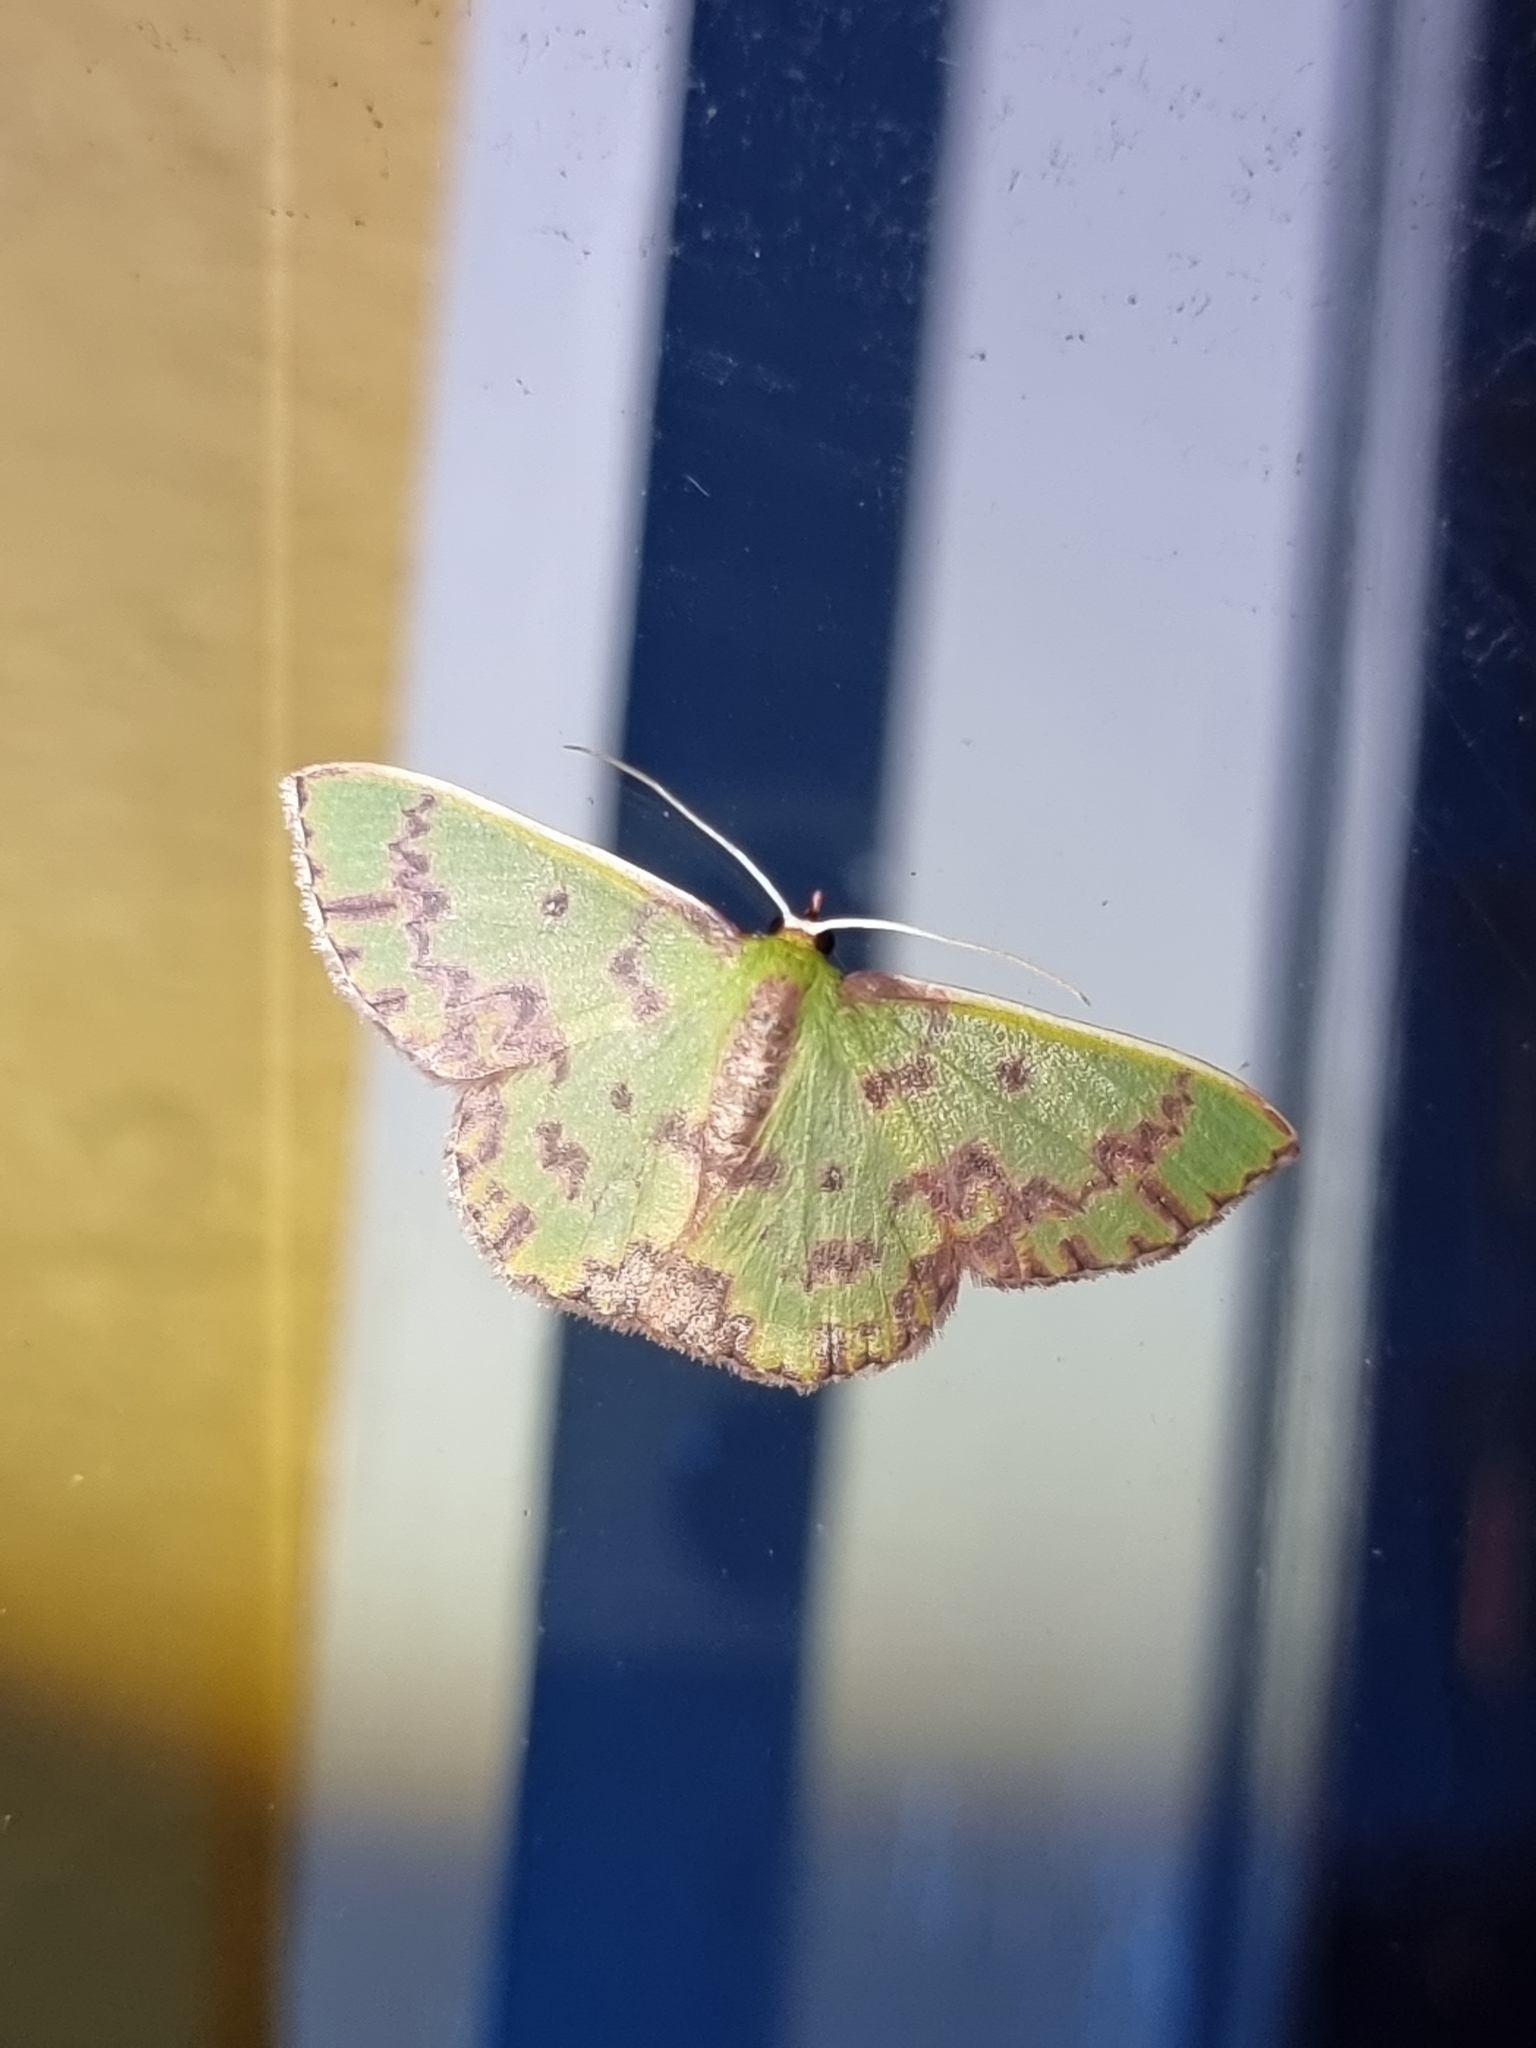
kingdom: Animalia
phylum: Arthropoda
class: Insecta
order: Lepidoptera
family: Geometridae
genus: Prasinocyma
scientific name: Prasinocyma rhodocosma
